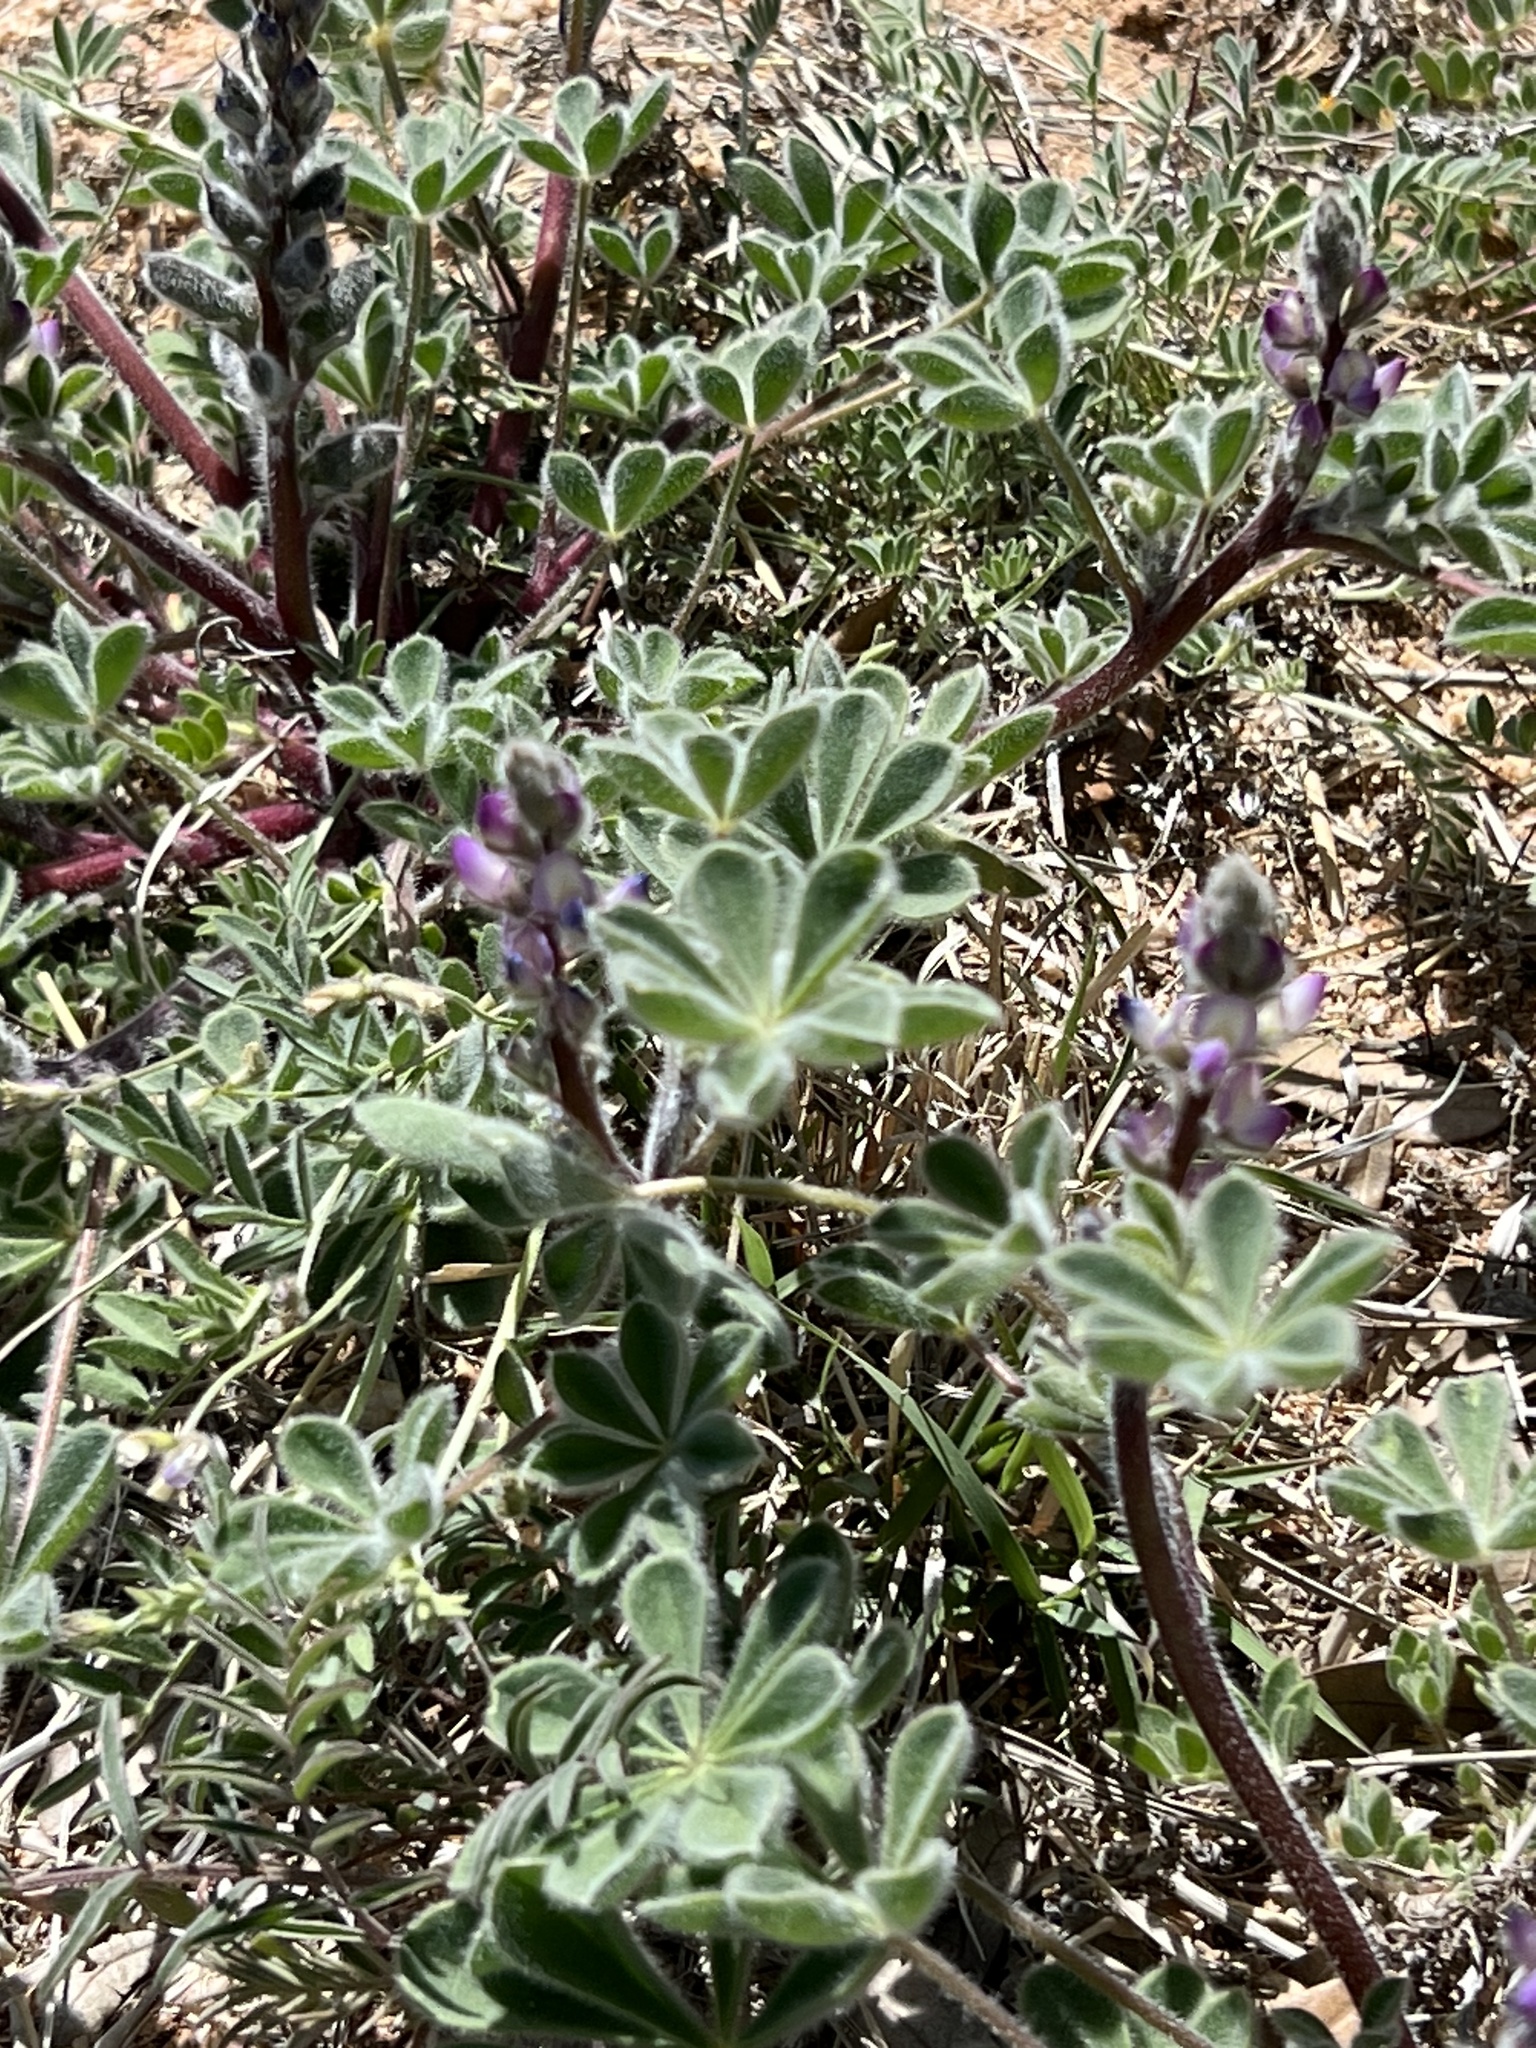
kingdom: Plantae
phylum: Tracheophyta
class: Magnoliopsida
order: Fabales
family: Fabaceae
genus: Lupinus
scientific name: Lupinus concinnus
